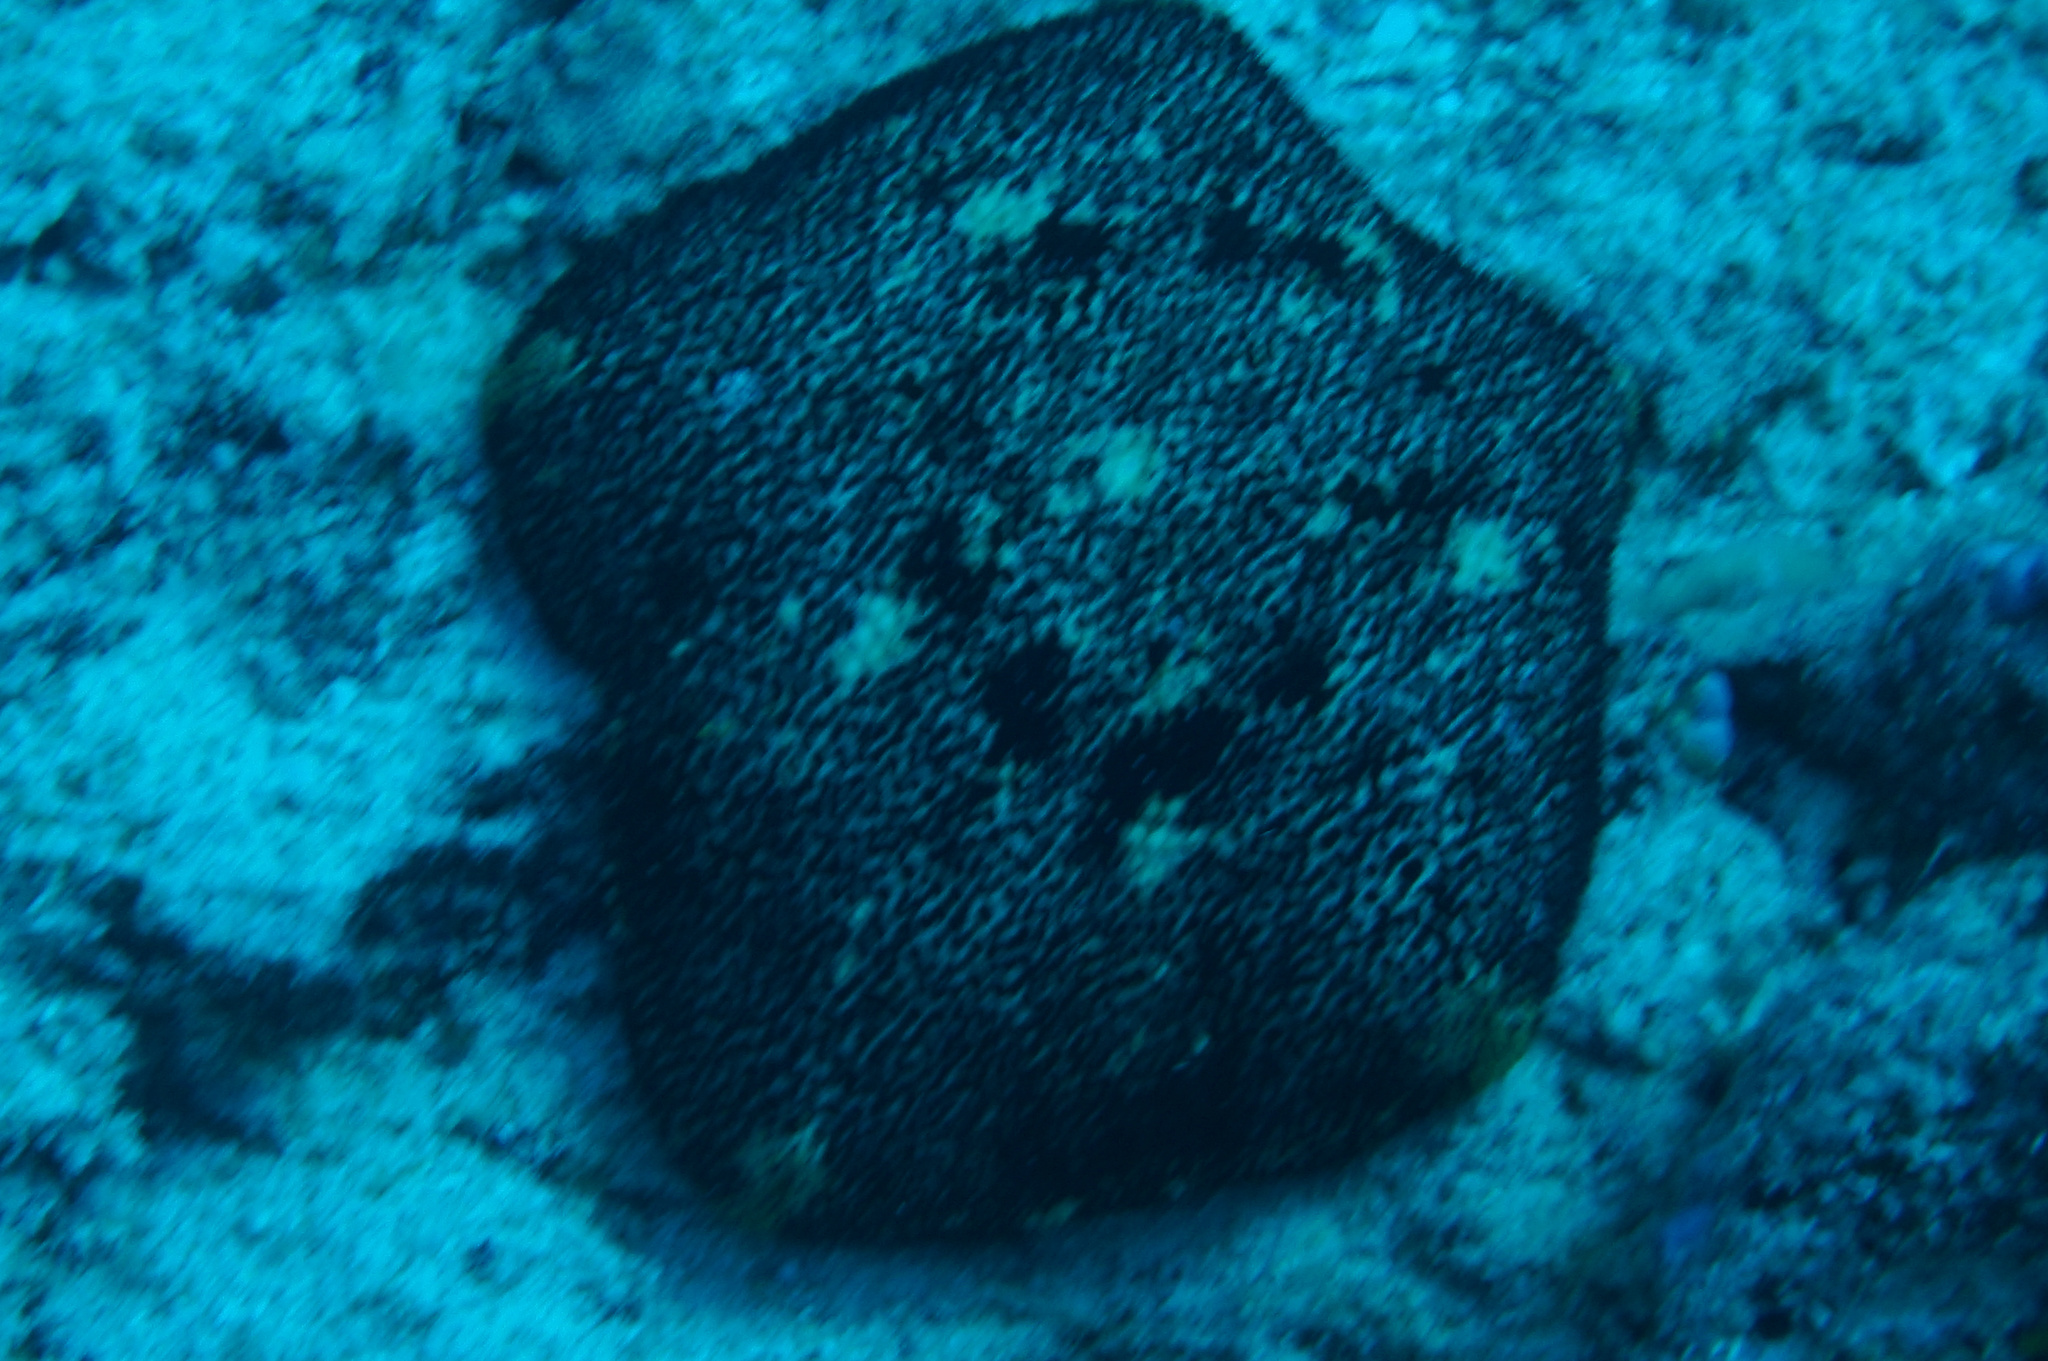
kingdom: Animalia
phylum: Echinodermata
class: Asteroidea
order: Valvatida
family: Oreasteridae
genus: Culcita
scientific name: Culcita novaeguineae
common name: Cushion star
